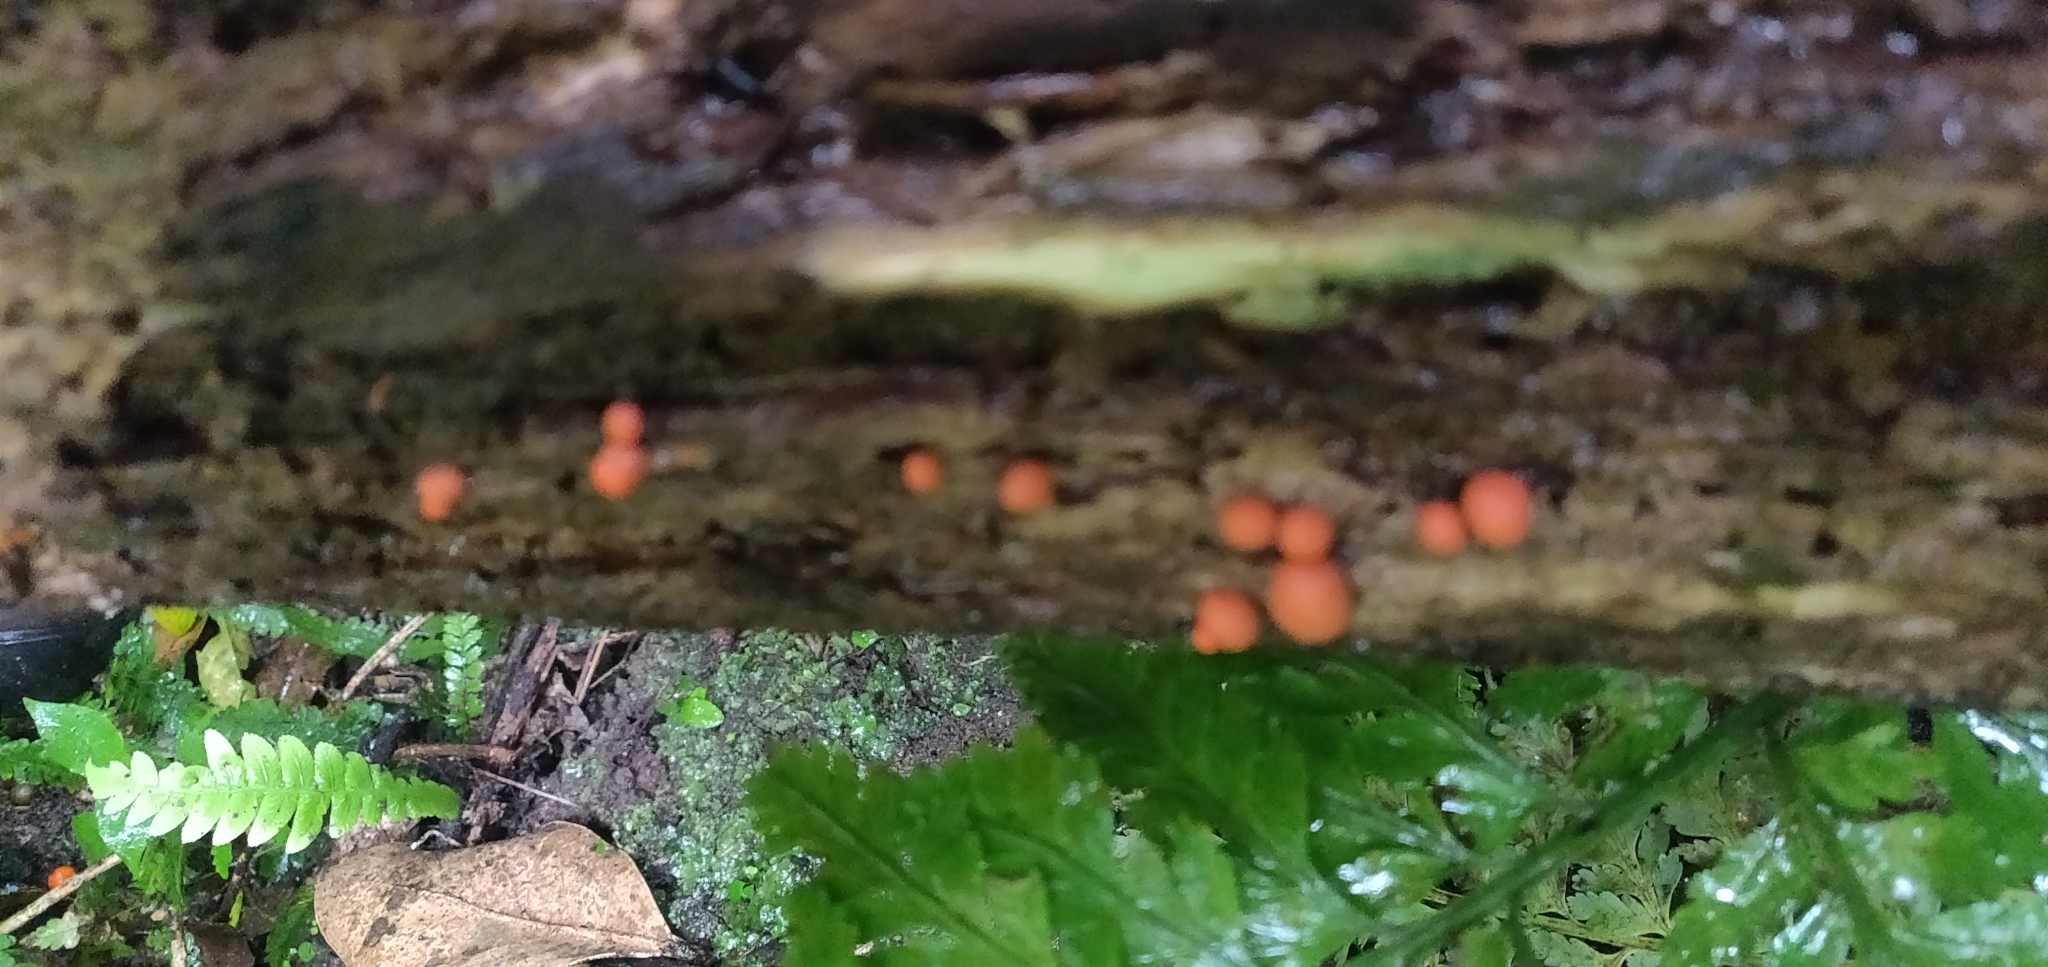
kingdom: Protozoa
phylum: Mycetozoa
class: Myxomycetes
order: Cribrariales
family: Tubiferaceae
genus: Lycogala
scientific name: Lycogala epidendrum
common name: Wolf's milk
